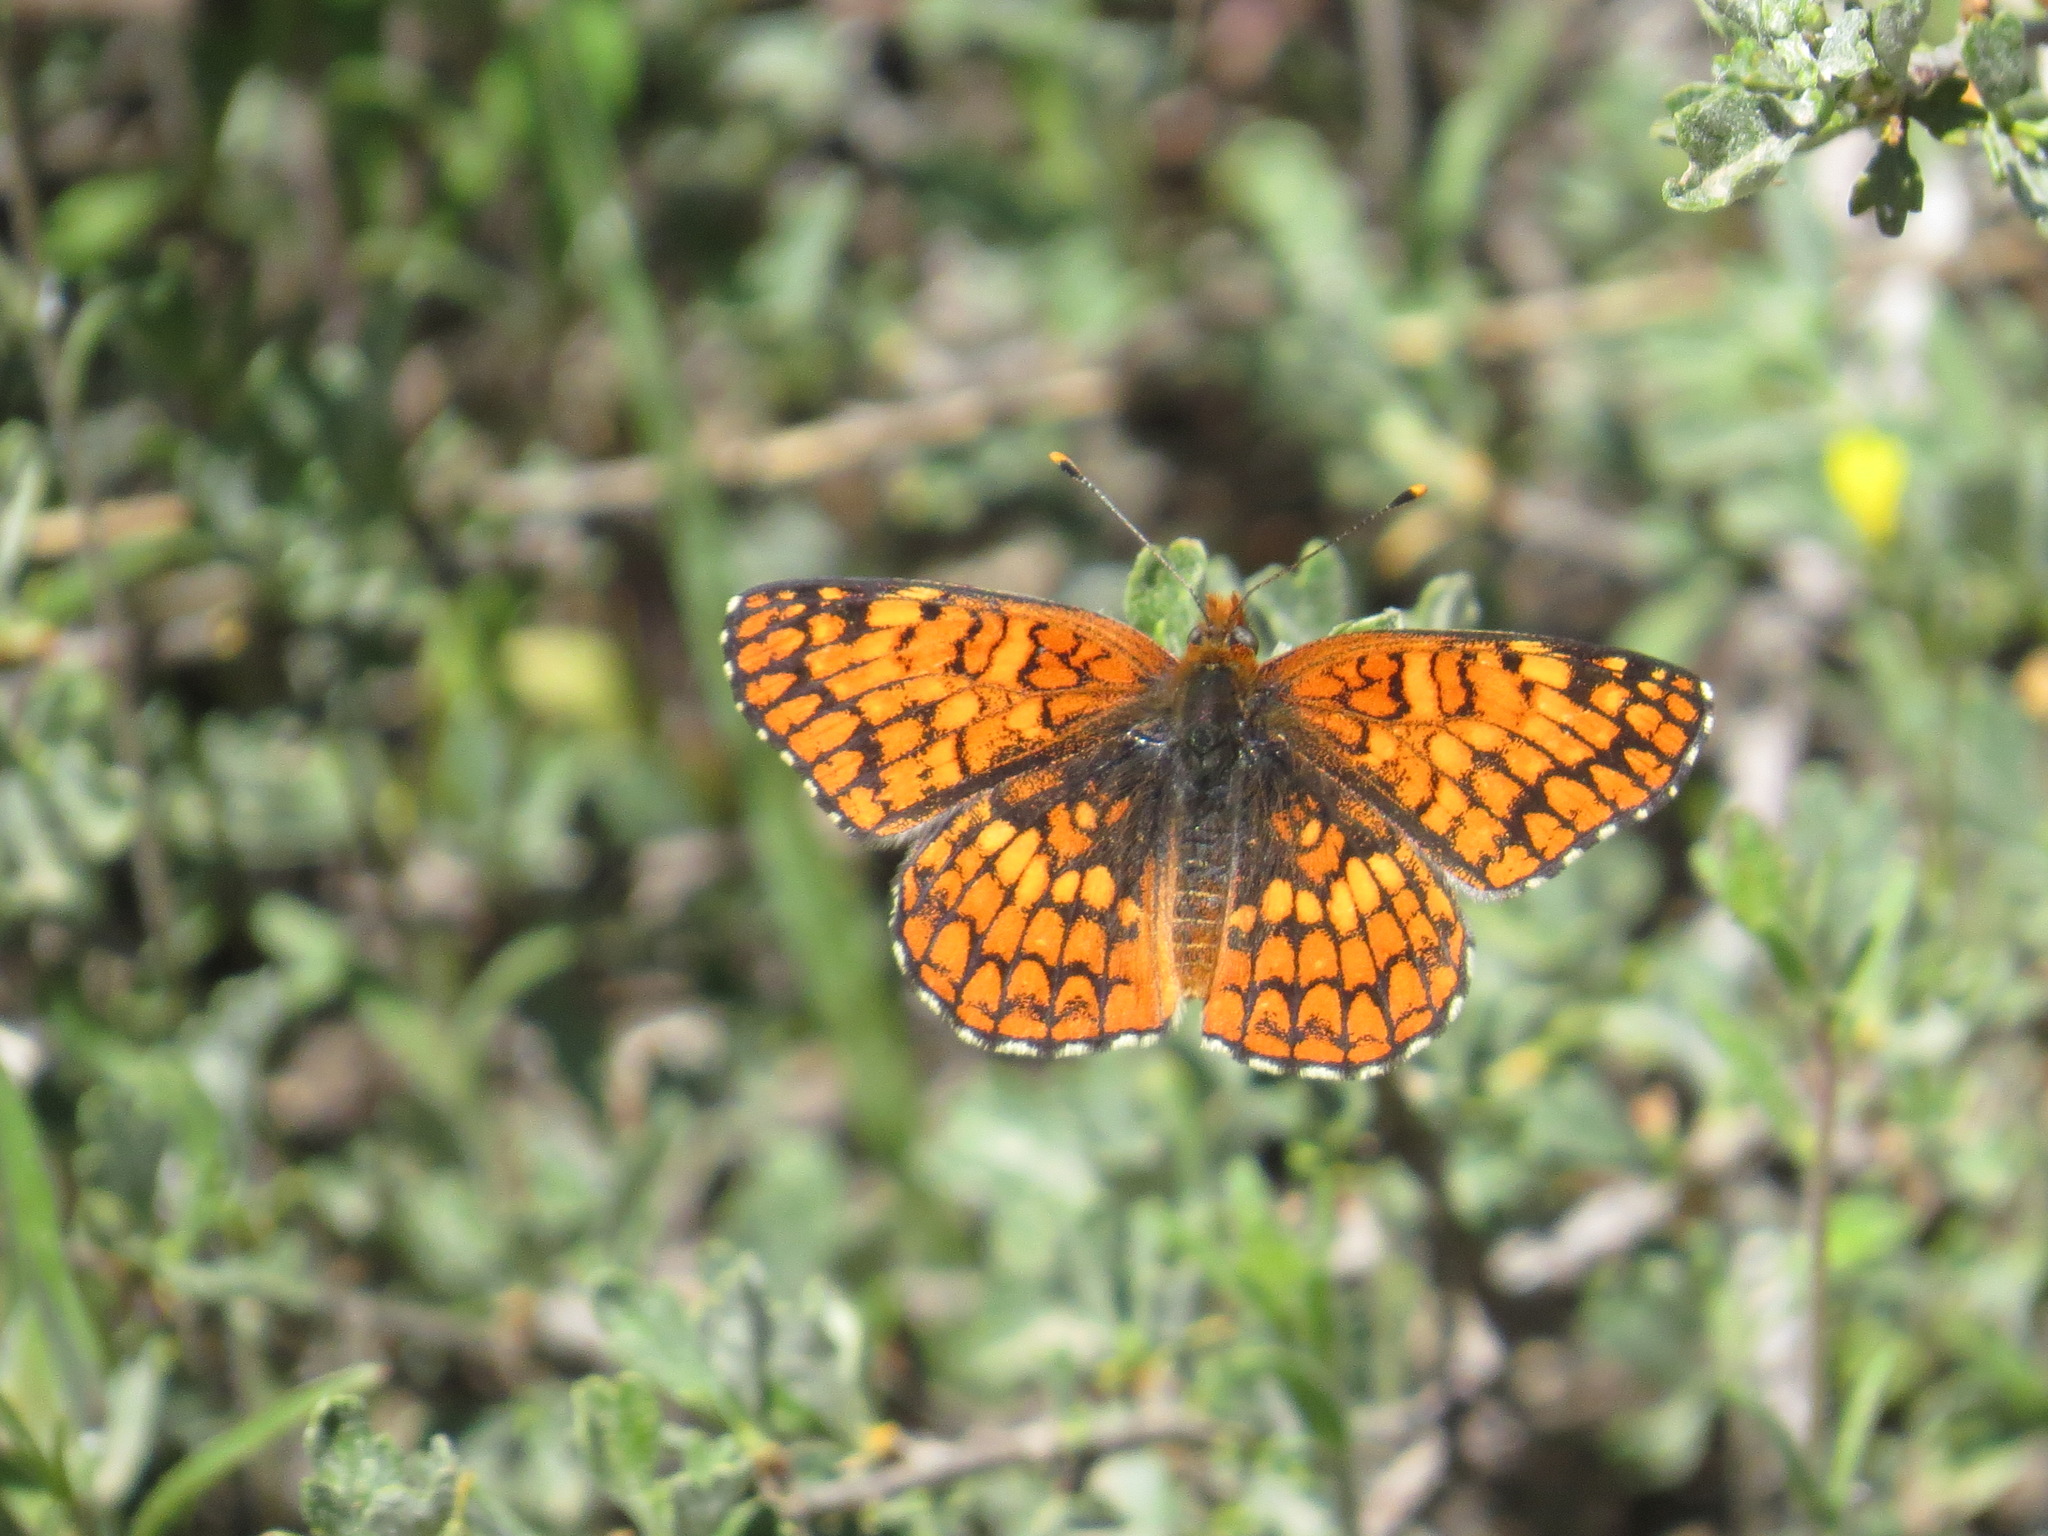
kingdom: Animalia
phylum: Arthropoda
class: Insecta
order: Lepidoptera
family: Nymphalidae
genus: Chlosyne
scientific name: Chlosyne palla
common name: Northern checkerspot
